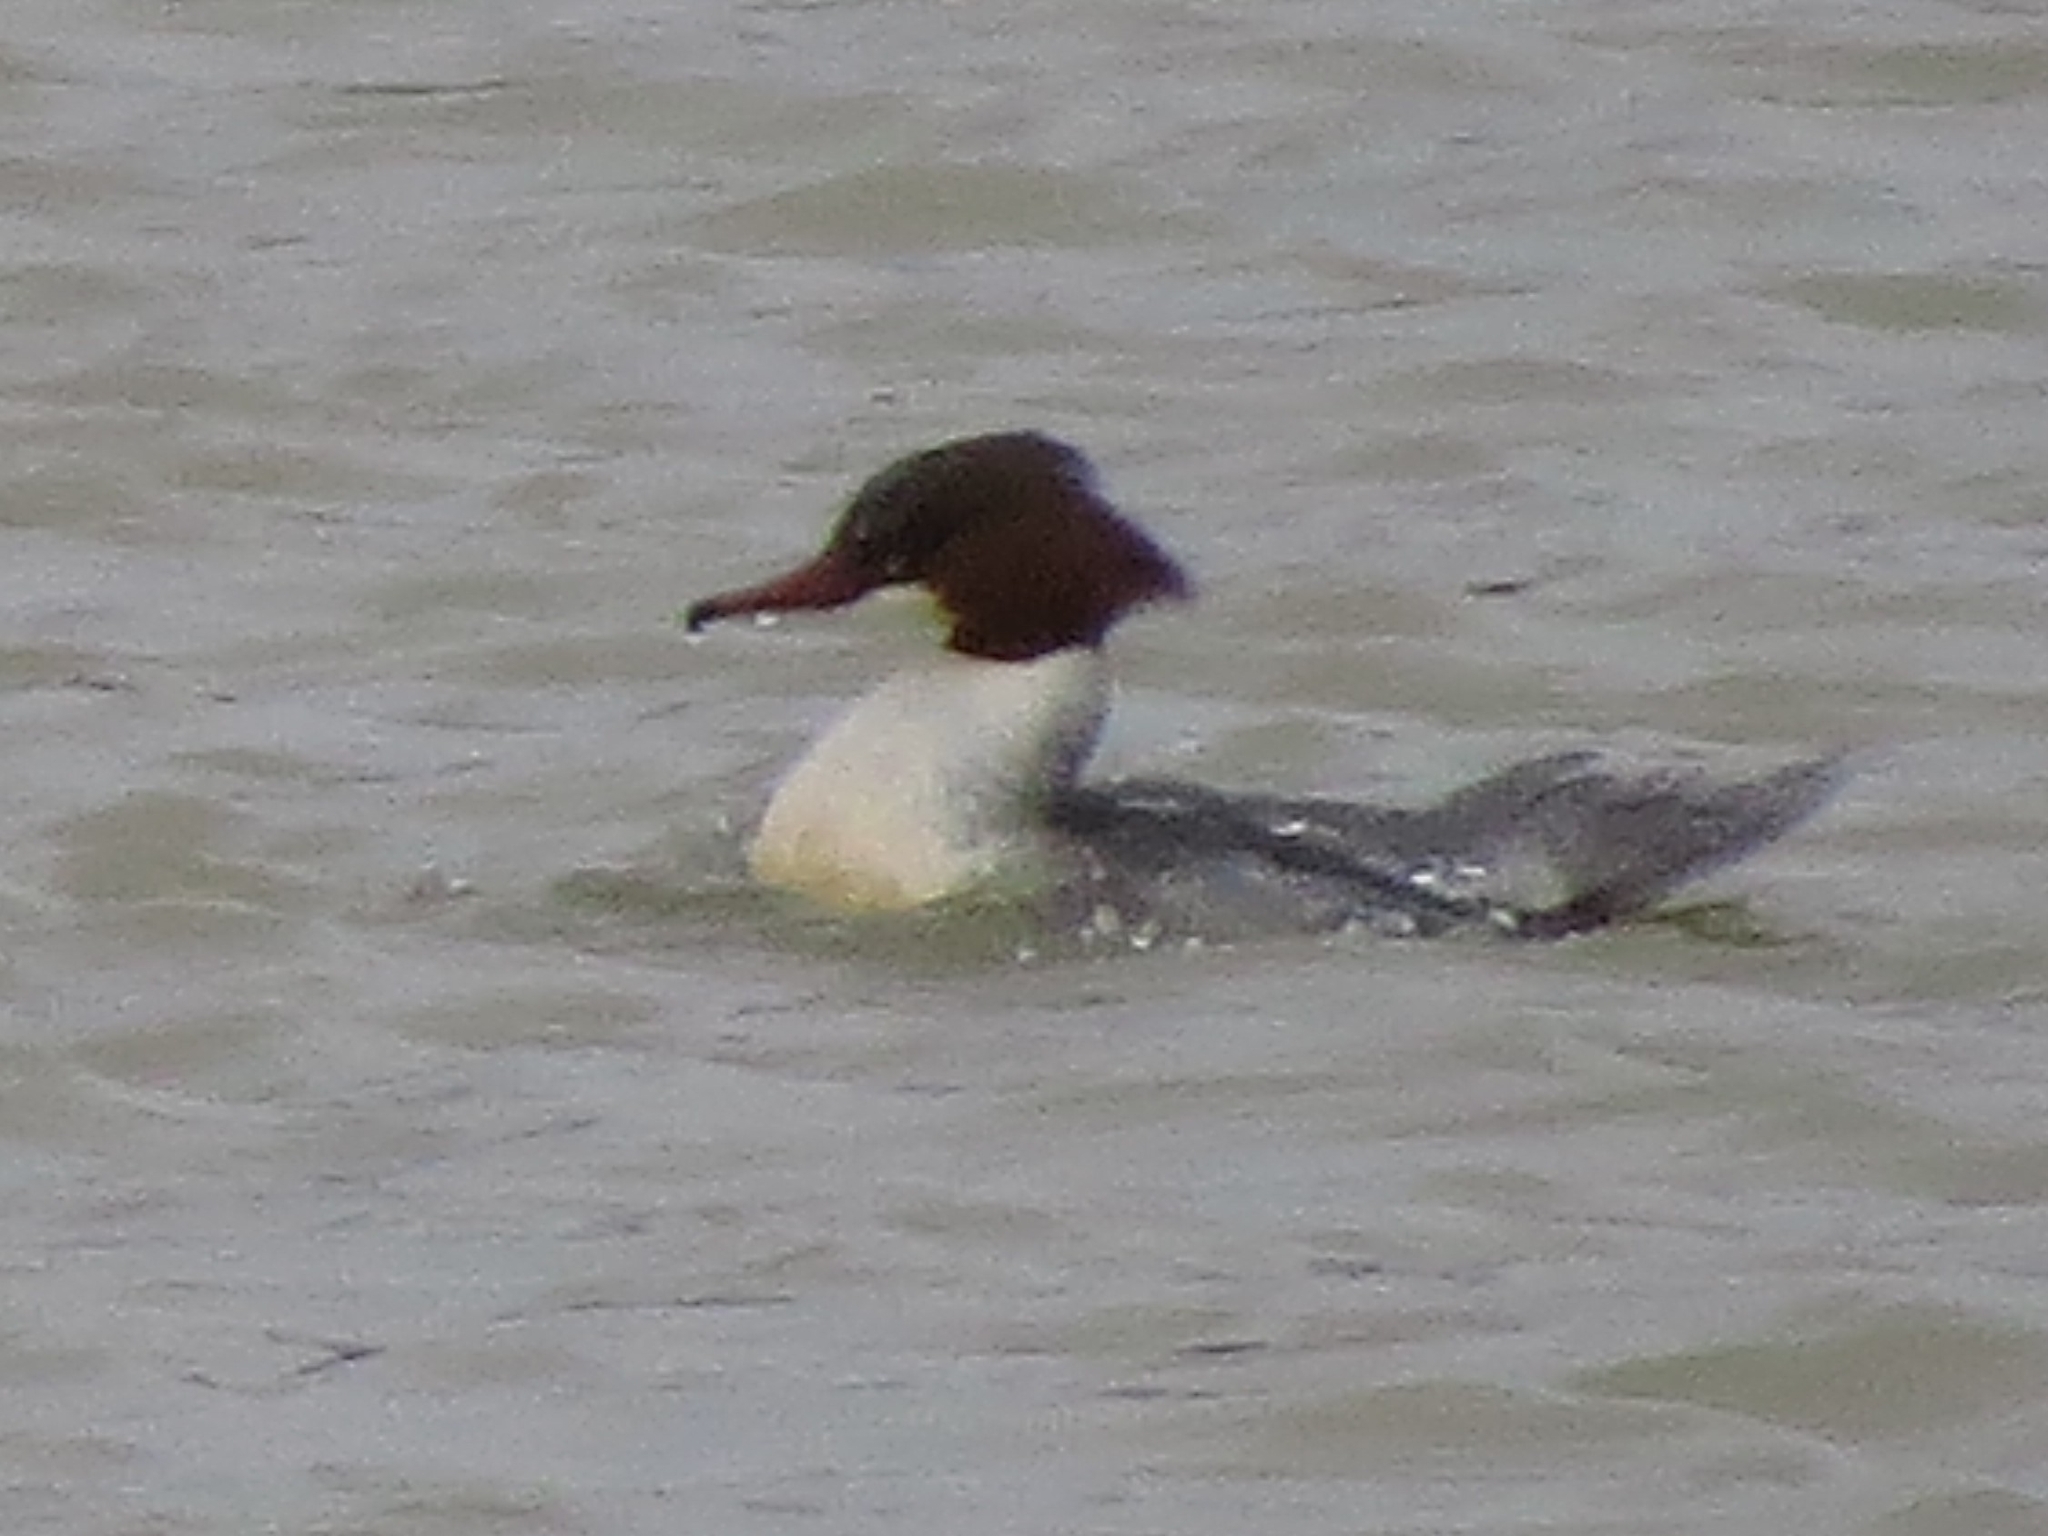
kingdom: Animalia
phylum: Chordata
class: Aves
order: Anseriformes
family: Anatidae
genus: Mergus
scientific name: Mergus merganser
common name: Common merganser
